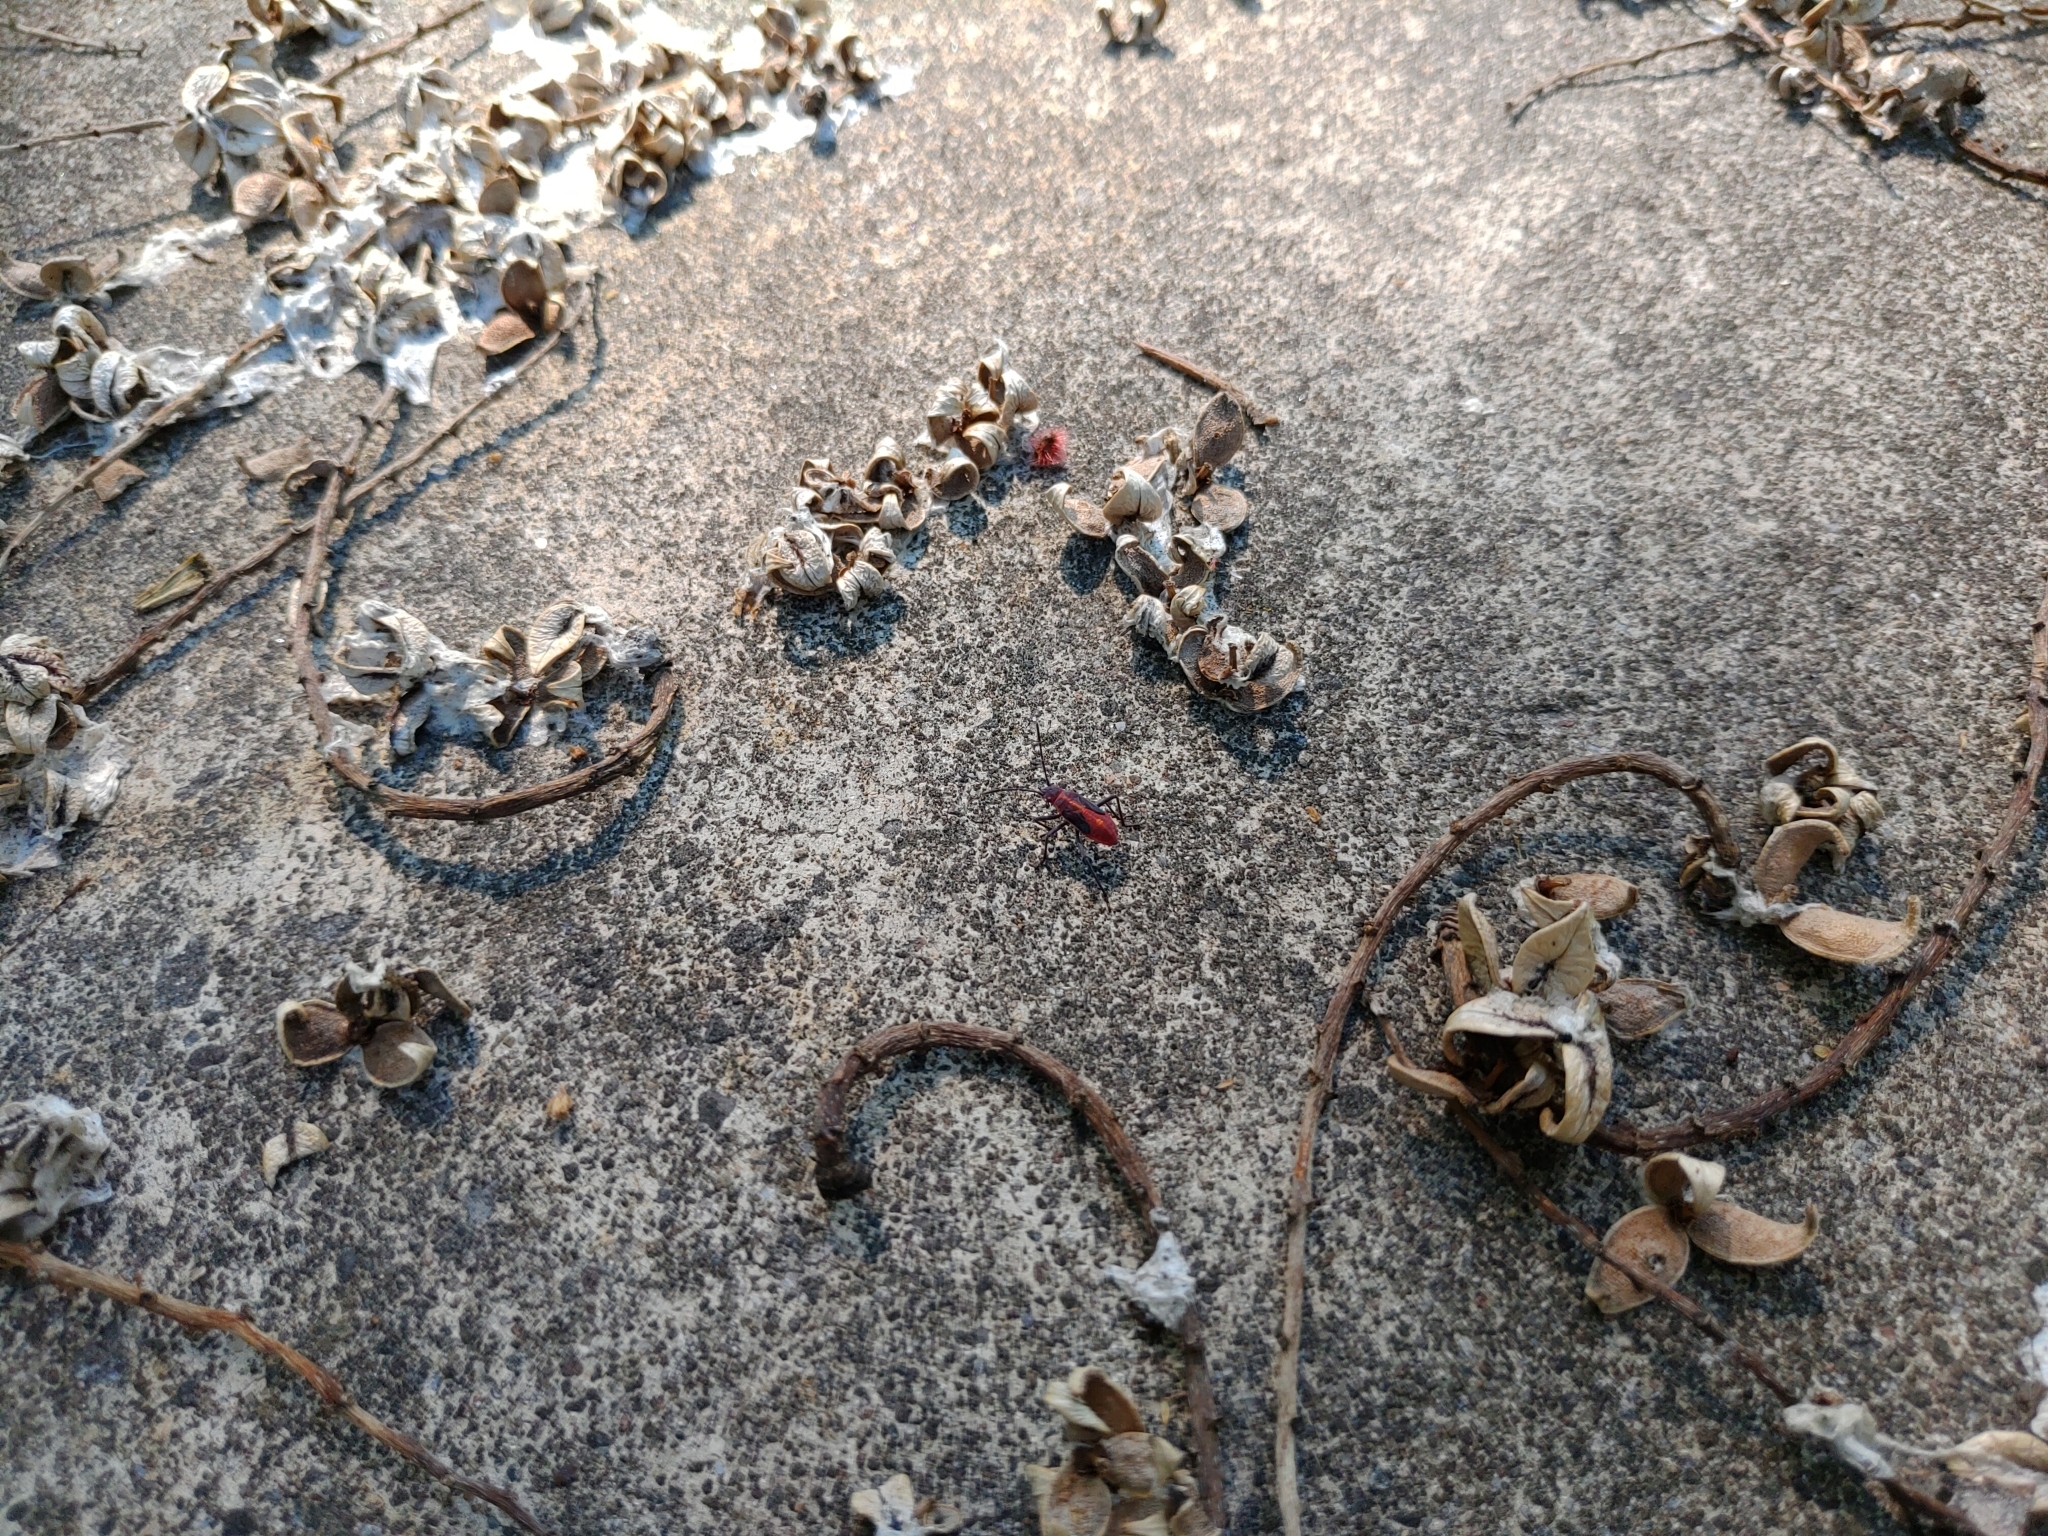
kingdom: Animalia
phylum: Arthropoda
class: Insecta
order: Hemiptera
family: Rhopalidae
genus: Boisea
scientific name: Boisea trivittata
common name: Boxelder bug
